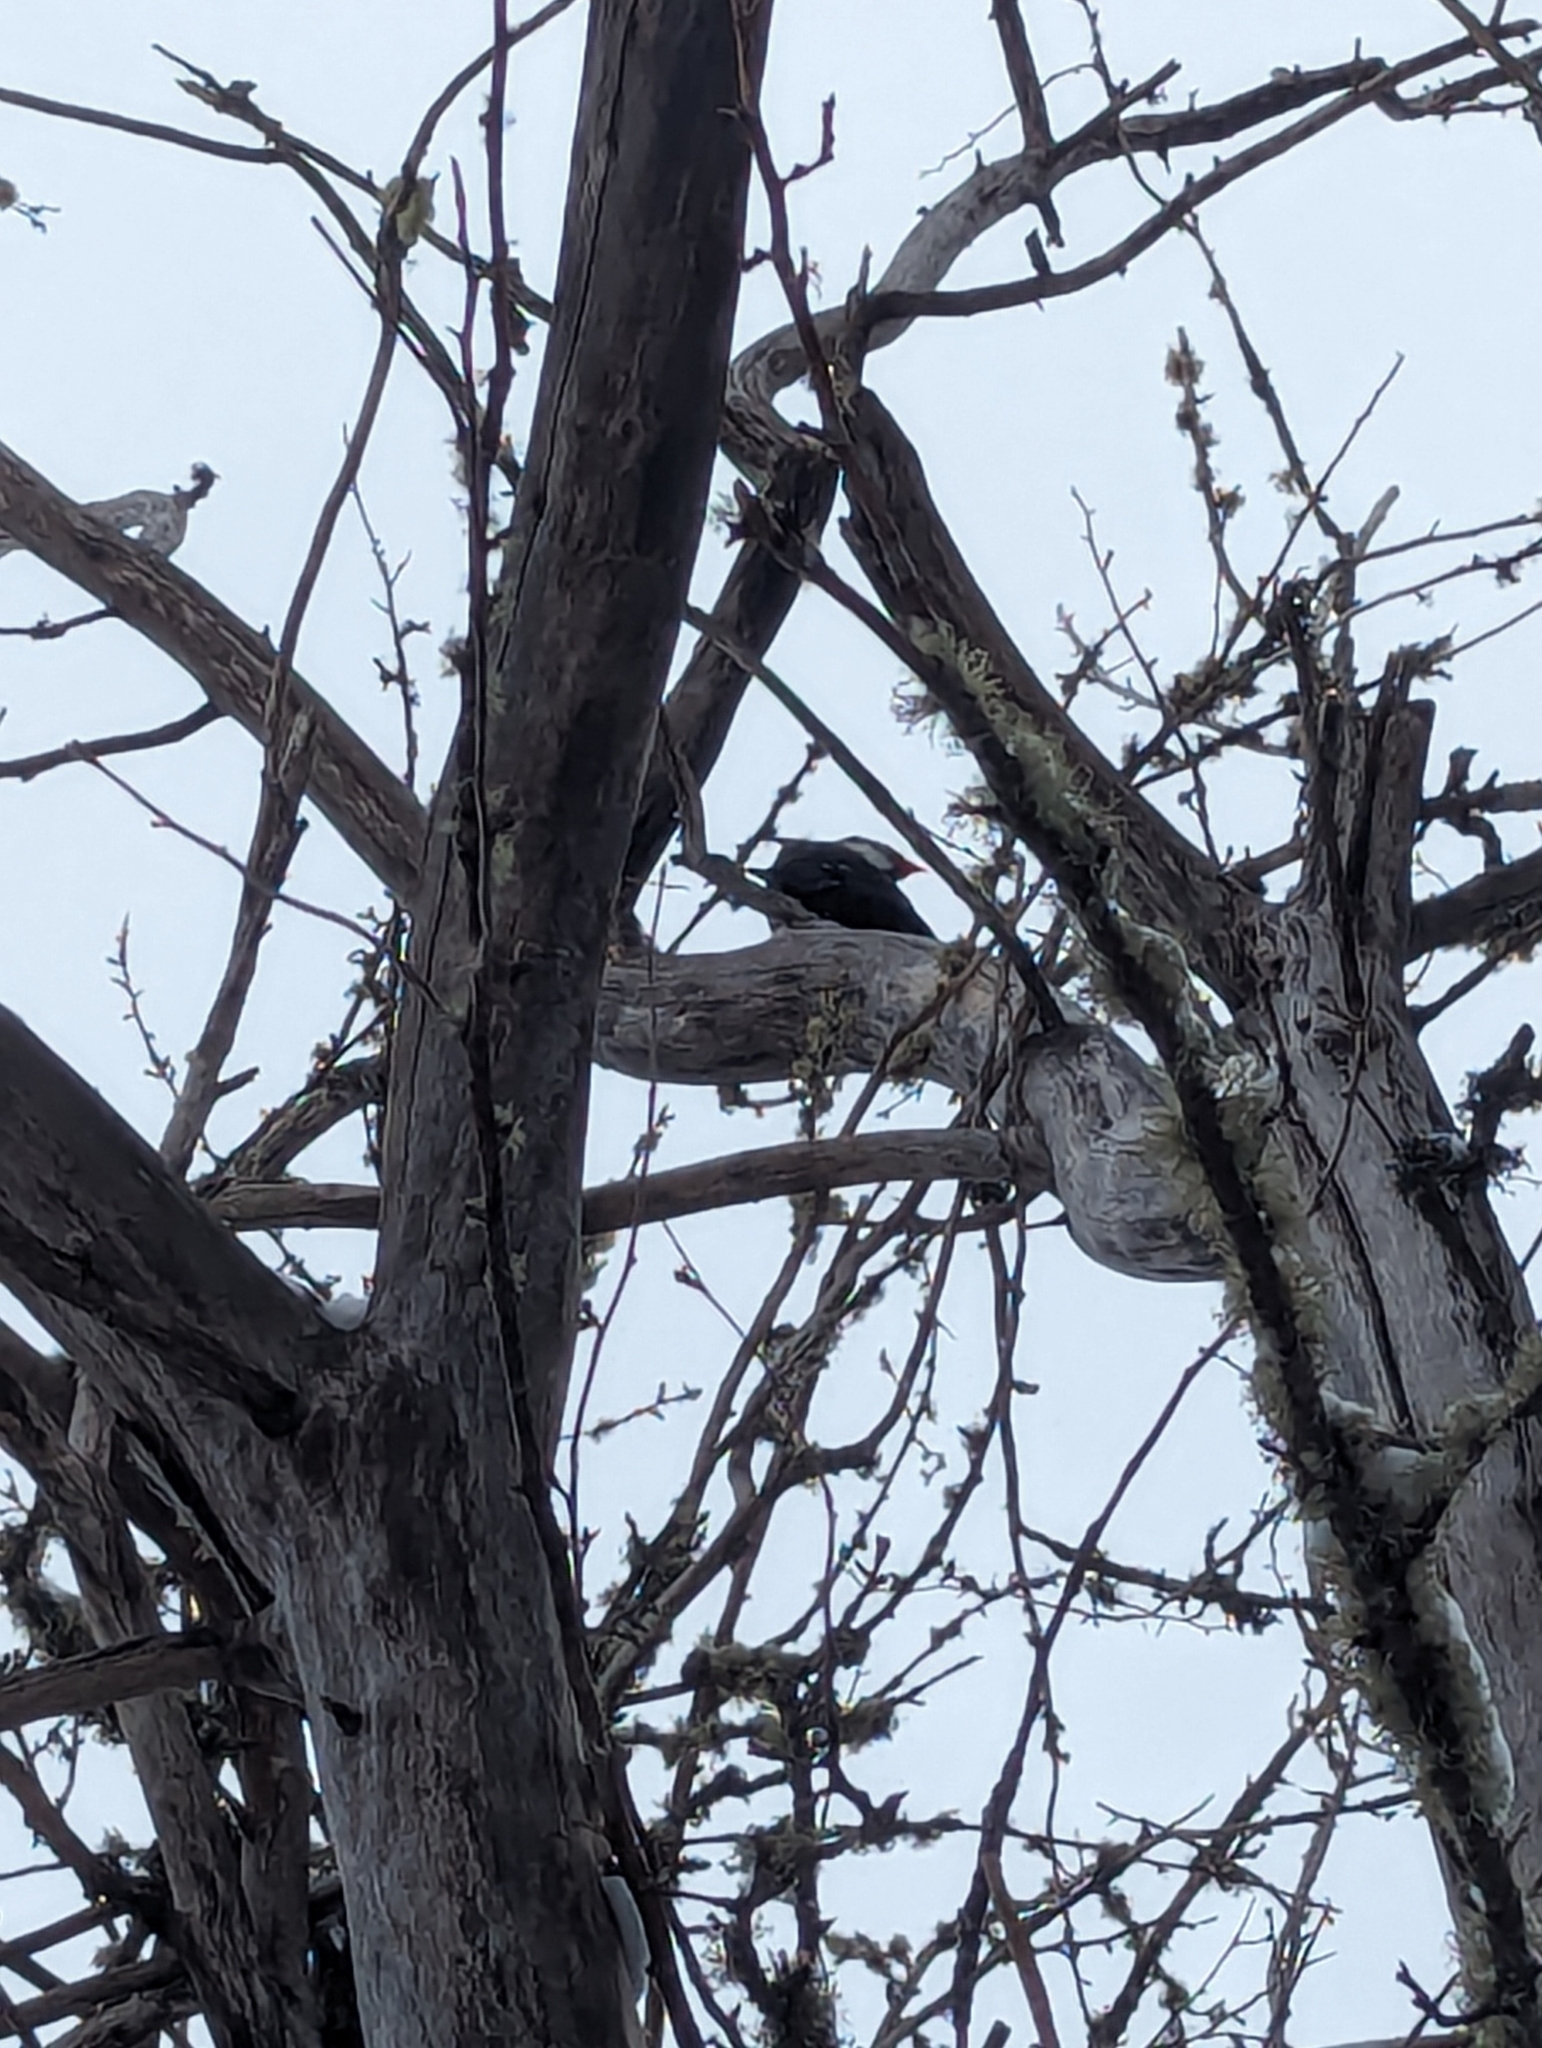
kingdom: Animalia
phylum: Chordata
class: Aves
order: Piciformes
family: Picidae
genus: Dryocopus
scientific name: Dryocopus pileatus
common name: Pileated woodpecker
